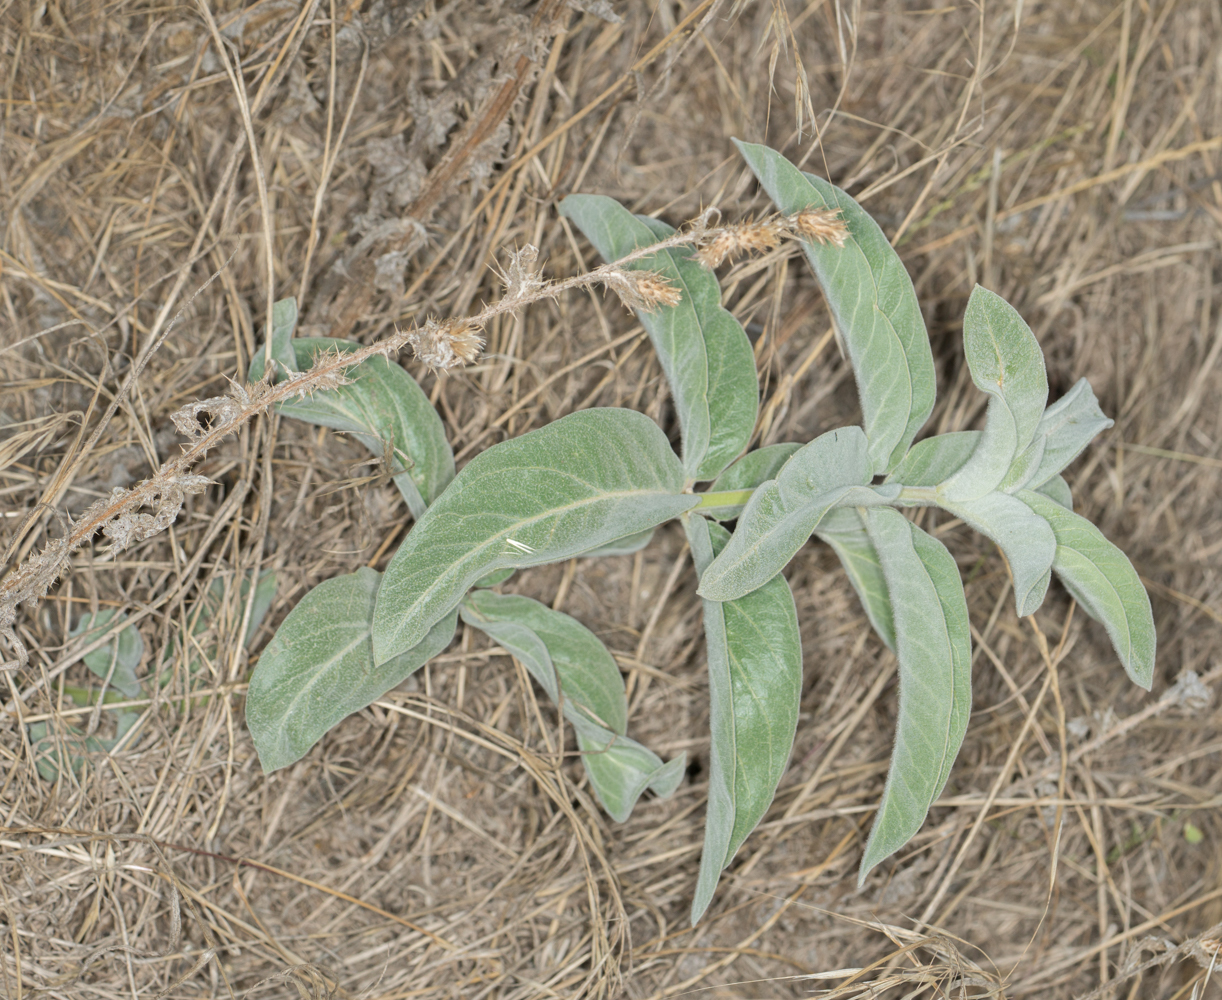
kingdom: Plantae
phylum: Tracheophyta
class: Magnoliopsida
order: Gentianales
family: Apocynaceae
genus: Asclepias
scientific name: Asclepias eriocarpa
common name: Indian milkweed
